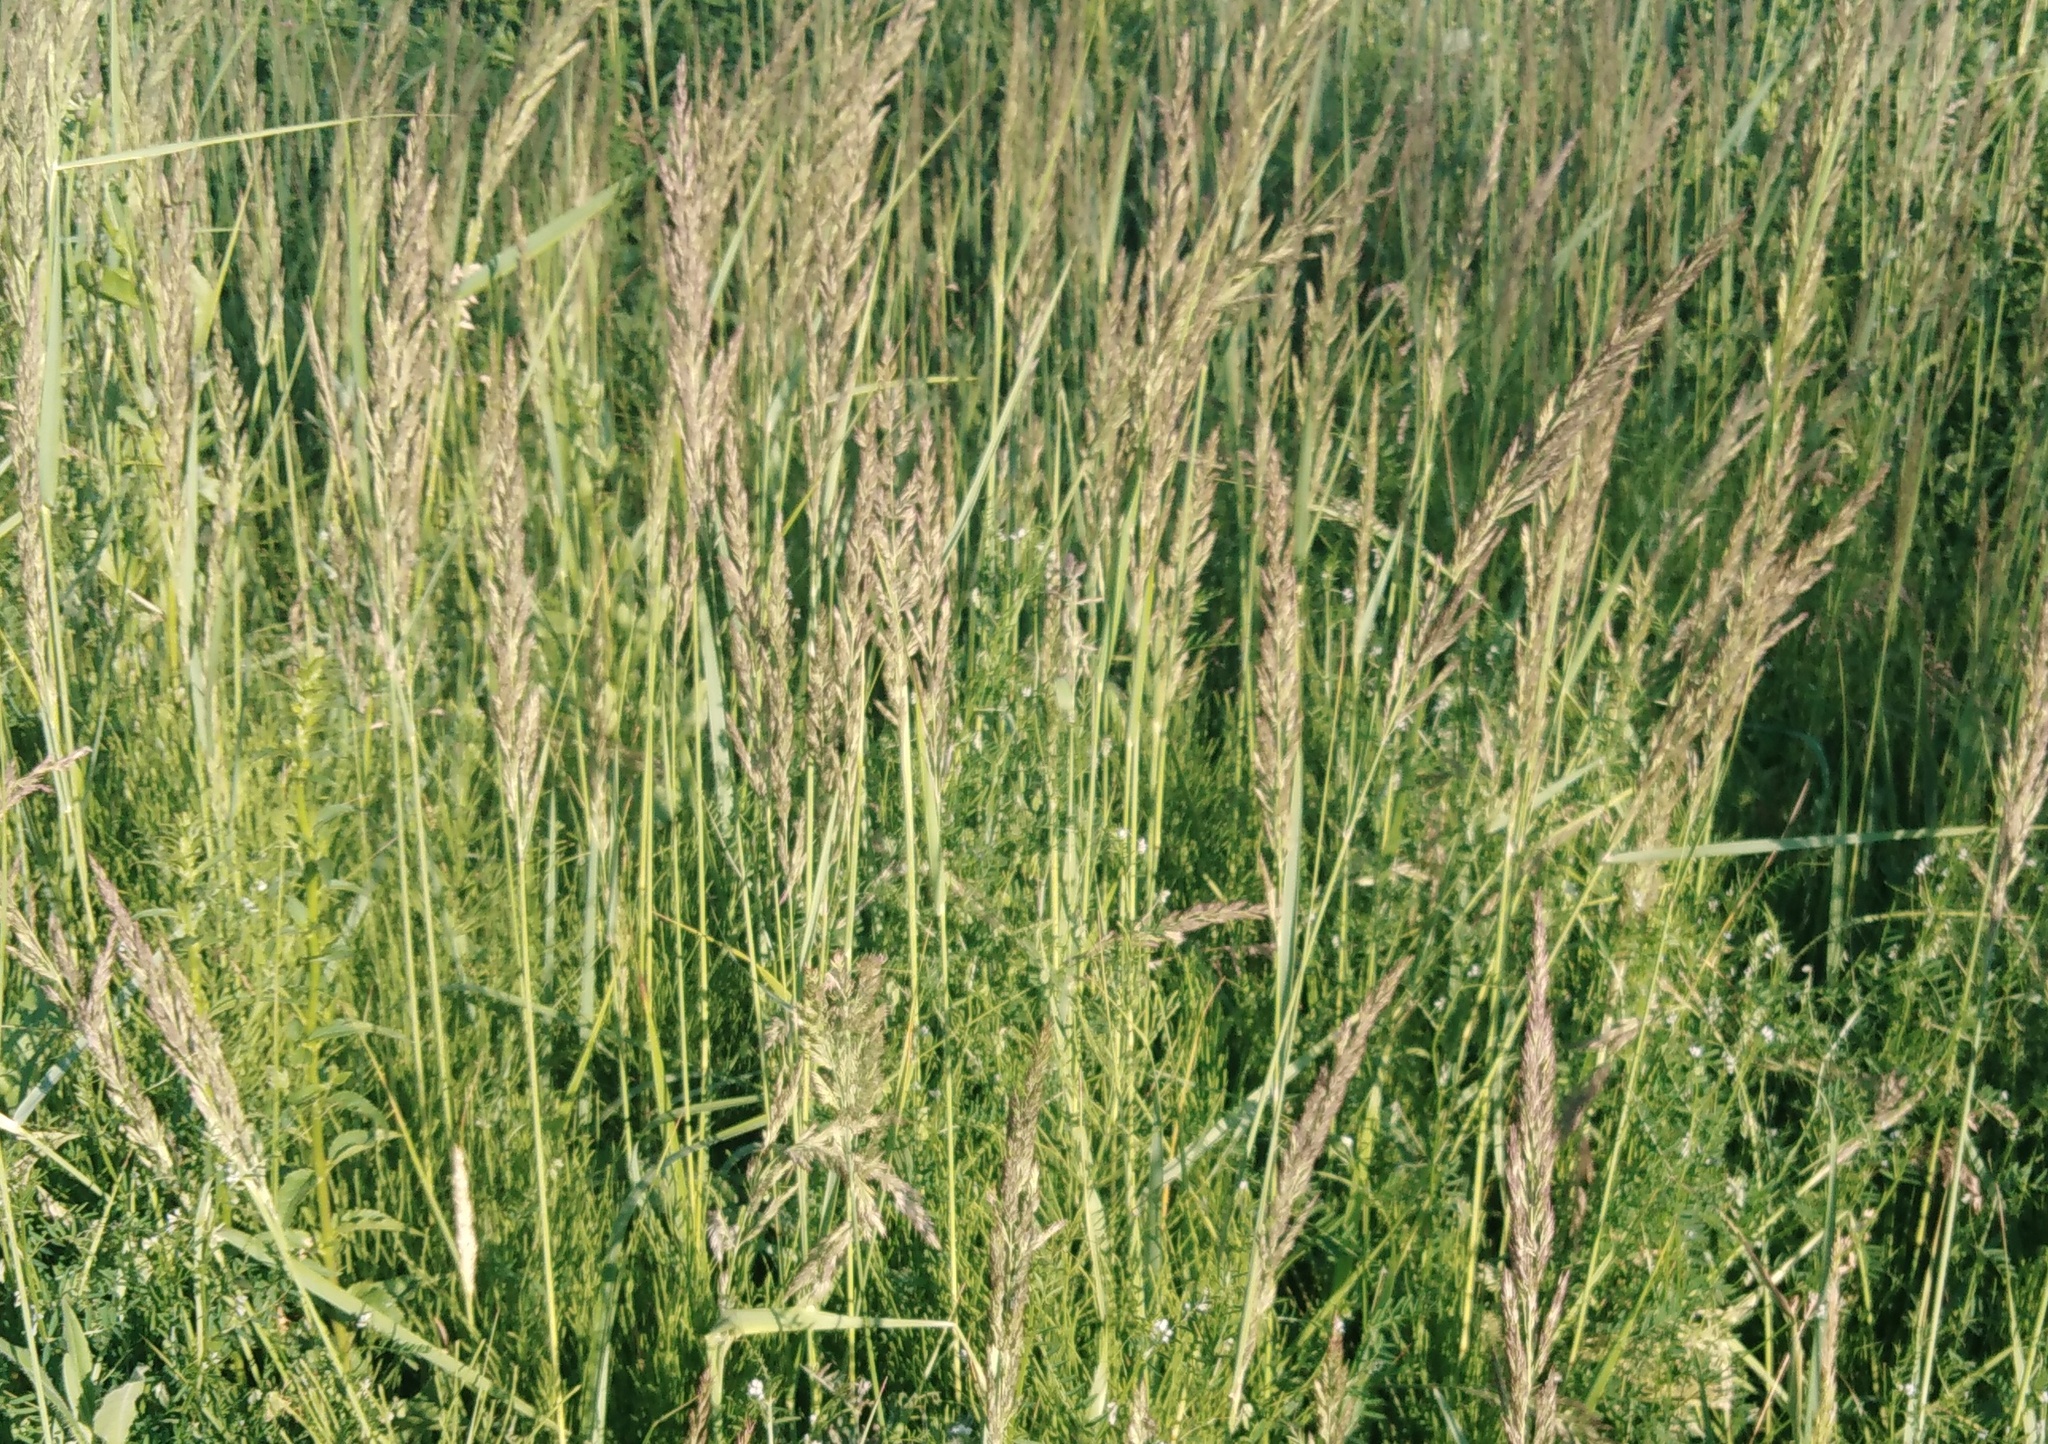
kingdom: Plantae
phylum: Tracheophyta
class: Liliopsida
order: Poales
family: Poaceae
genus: Calamagrostis
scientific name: Calamagrostis epigejos
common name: Wood small-reed
